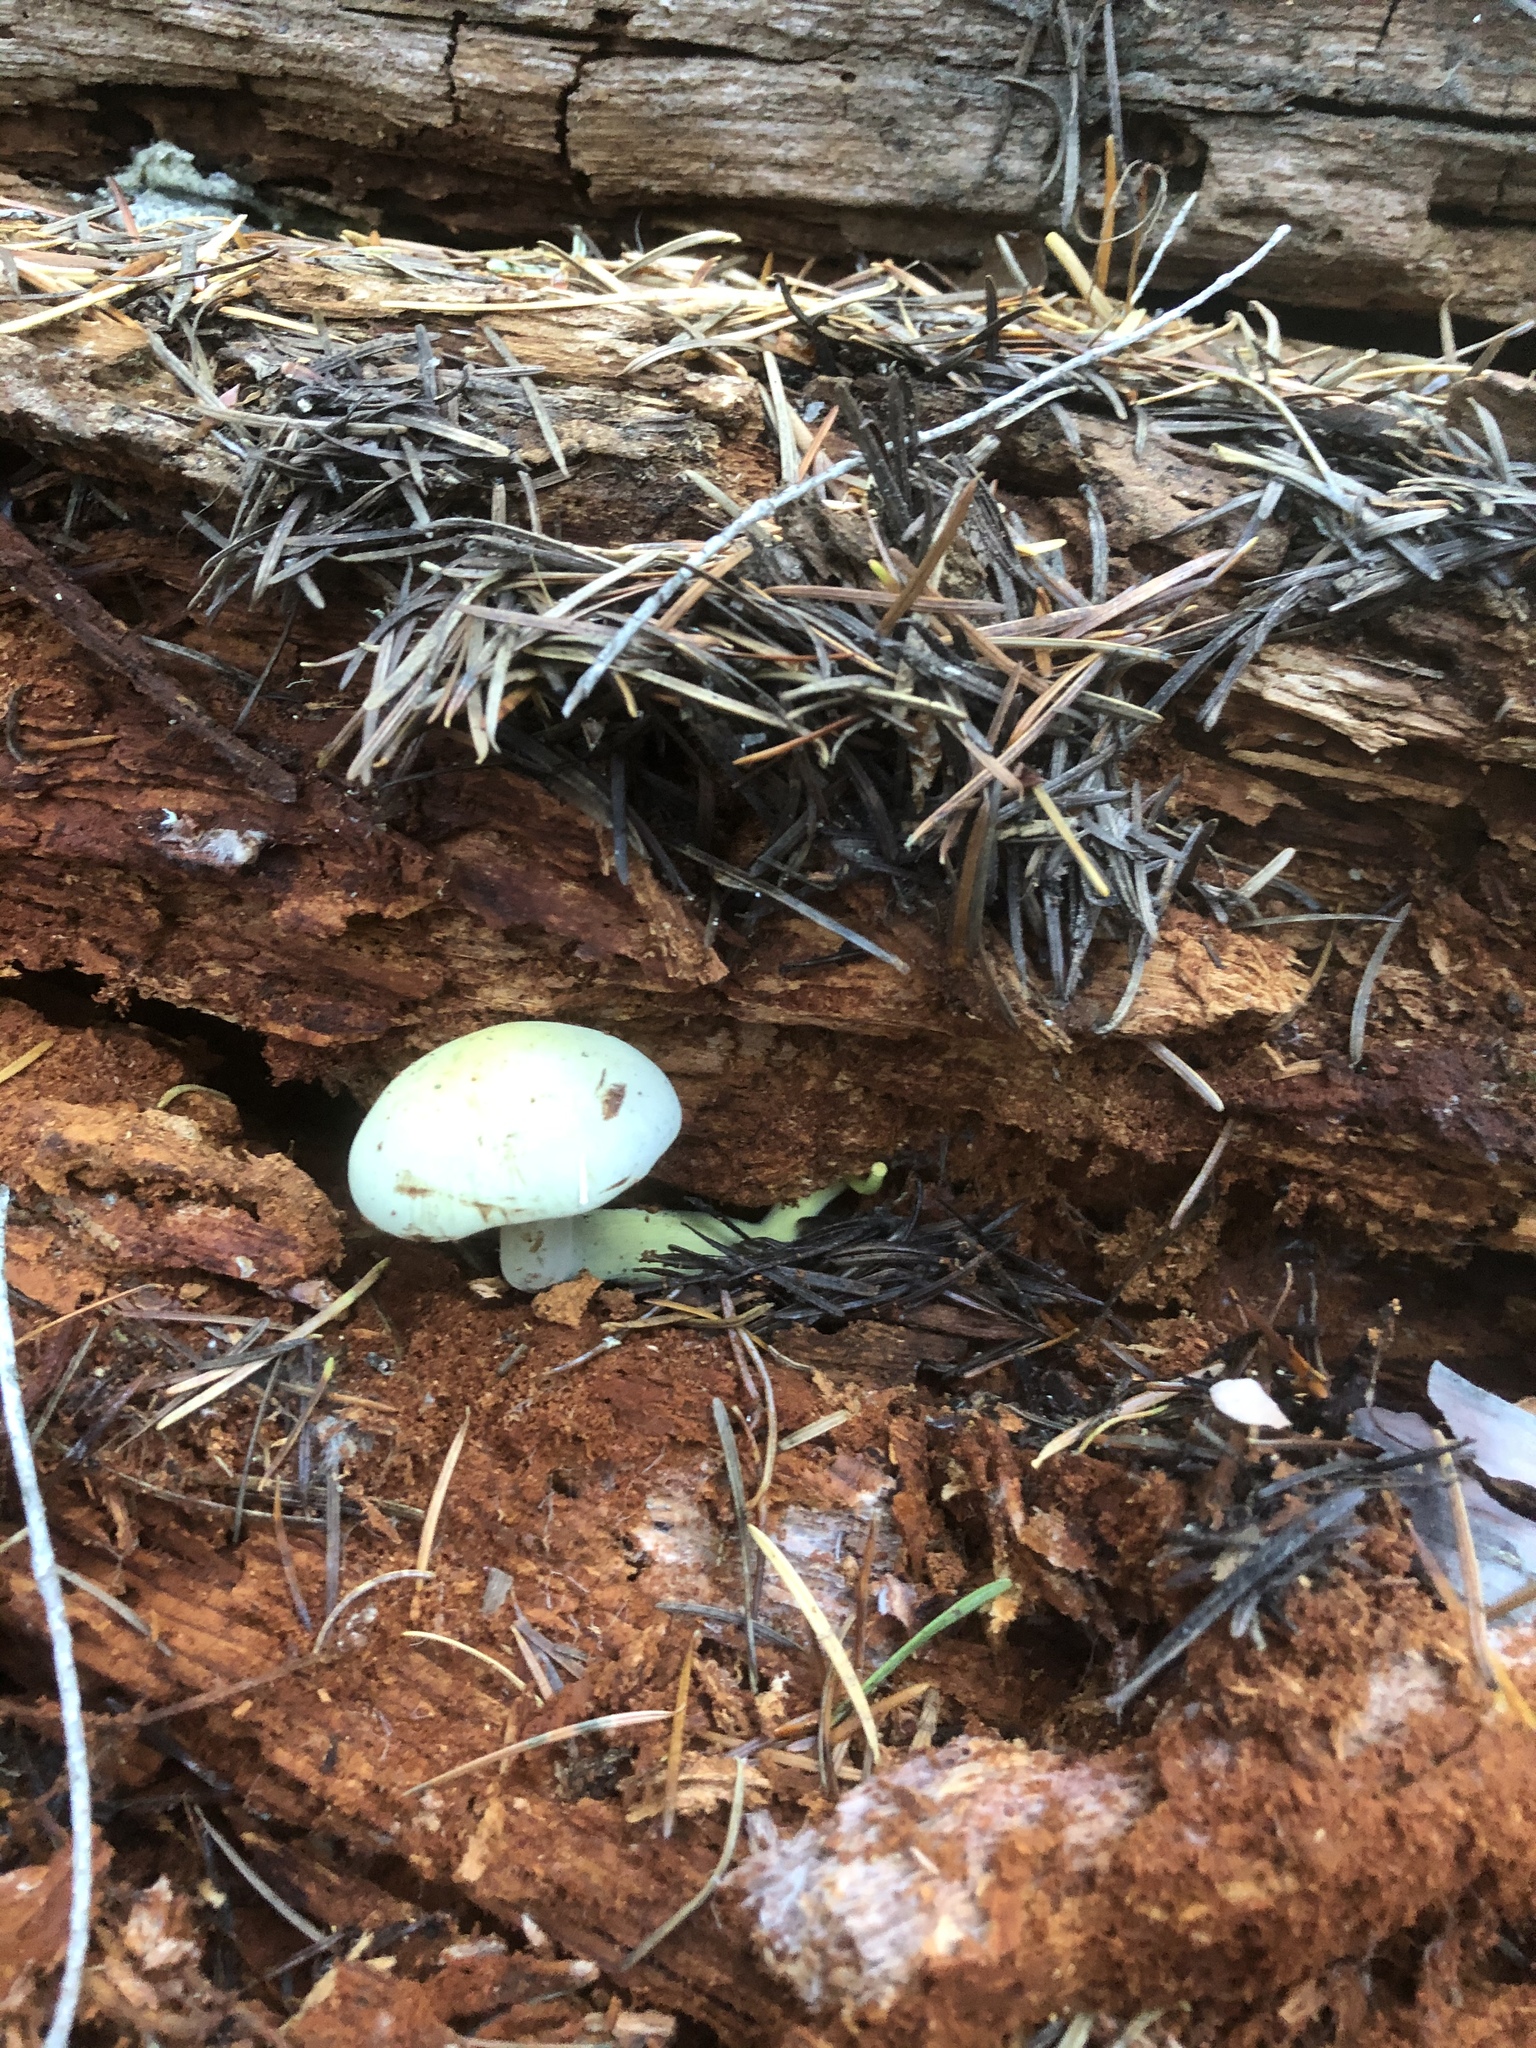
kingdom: Fungi
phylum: Basidiomycota
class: Agaricomycetes
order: Agaricales
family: Hymenogastraceae
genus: Gymnopilus
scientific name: Gymnopilus punctifolius
